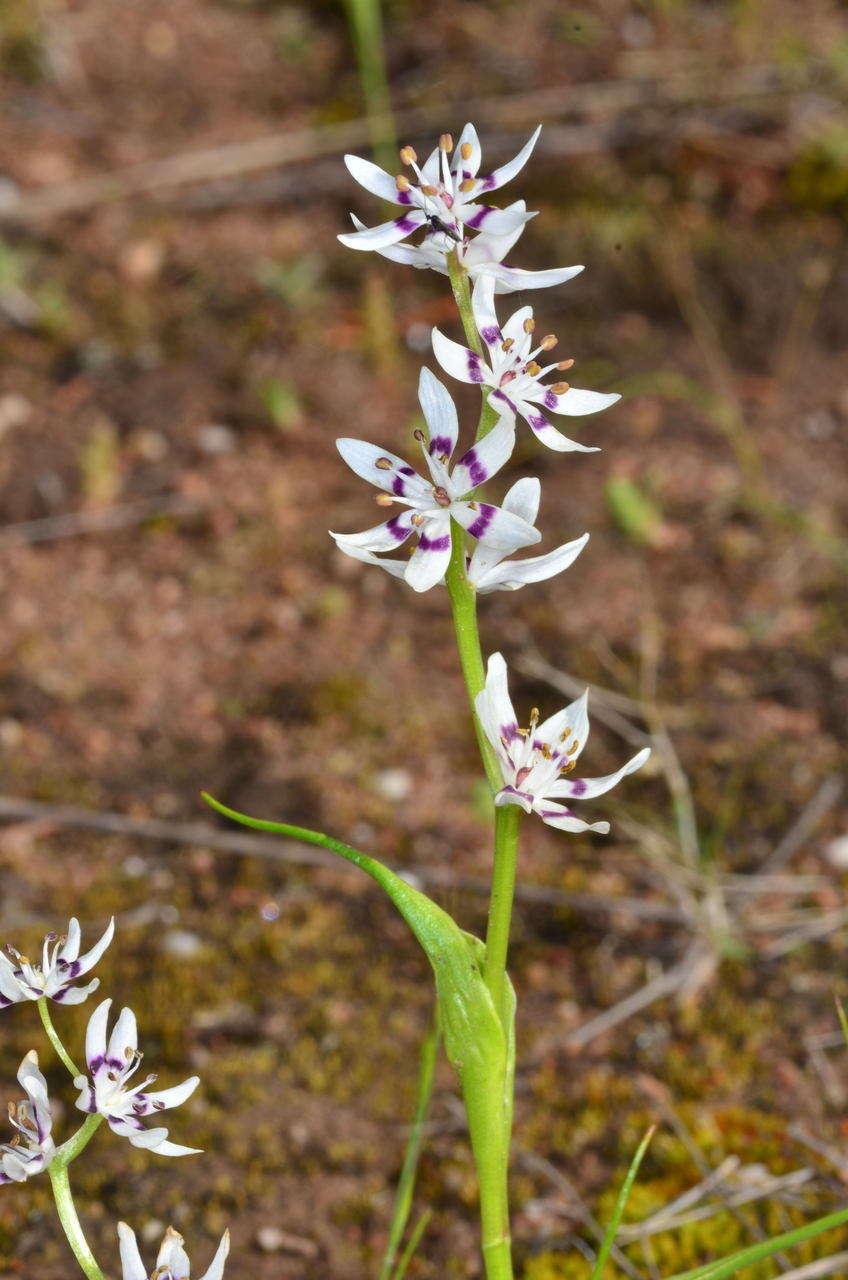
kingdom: Plantae
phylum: Tracheophyta
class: Liliopsida
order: Liliales
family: Colchicaceae
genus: Wurmbea
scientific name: Wurmbea dioica
